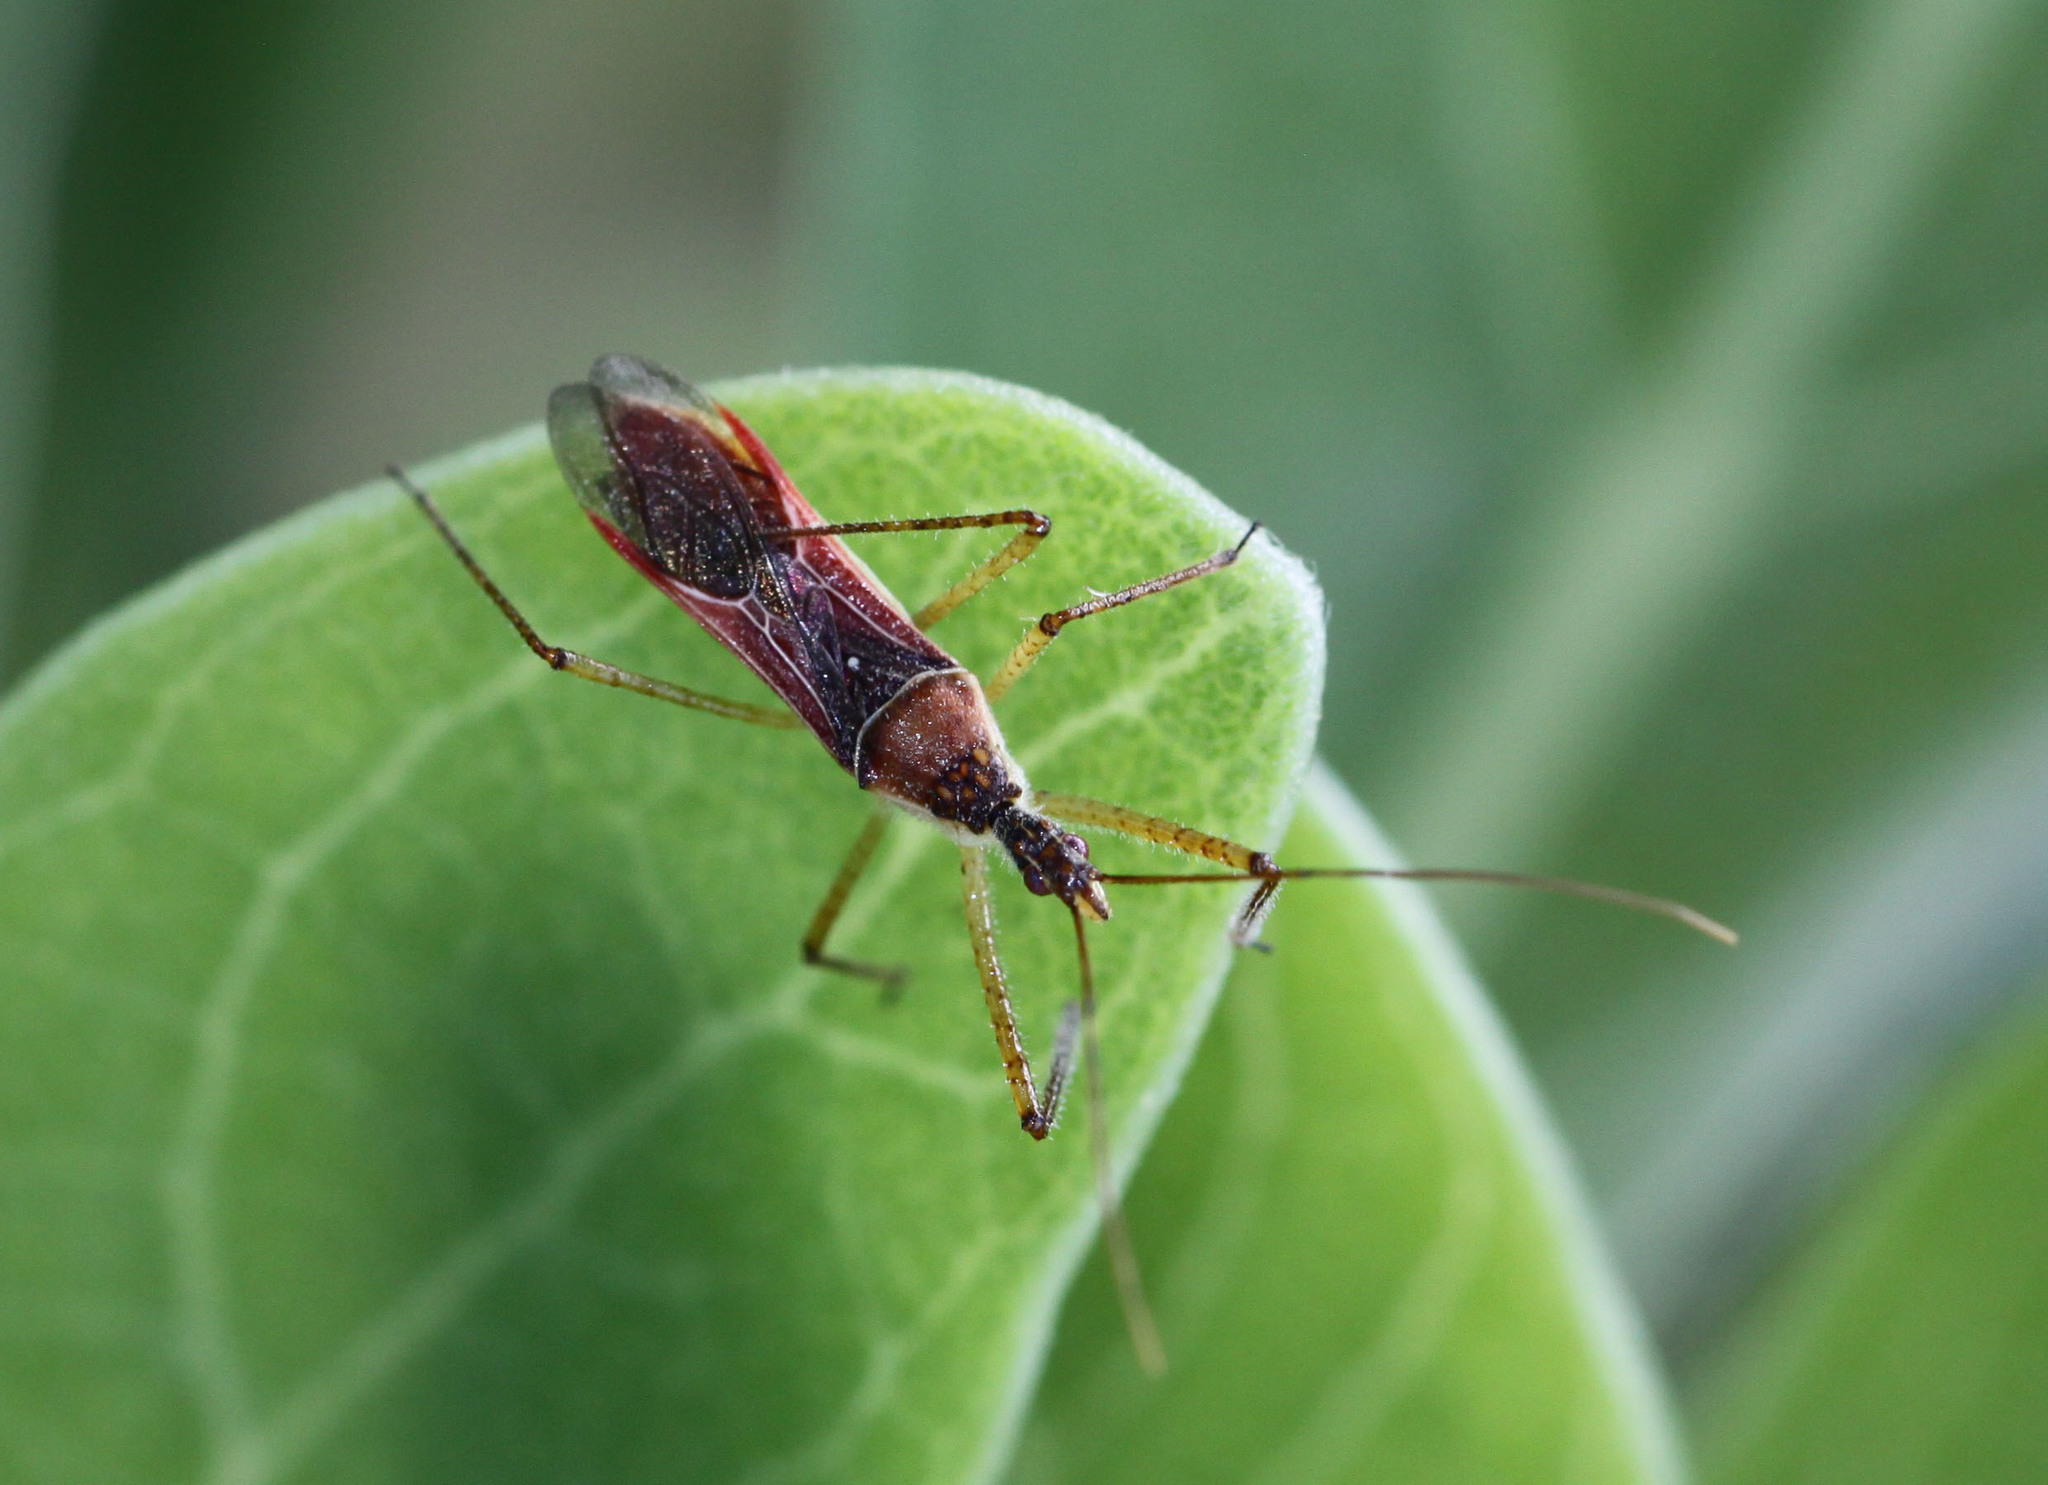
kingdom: Animalia
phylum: Arthropoda
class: Insecta
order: Hemiptera
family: Reduviidae
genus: Zelus
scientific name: Zelus renardii
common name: Assassin bug
